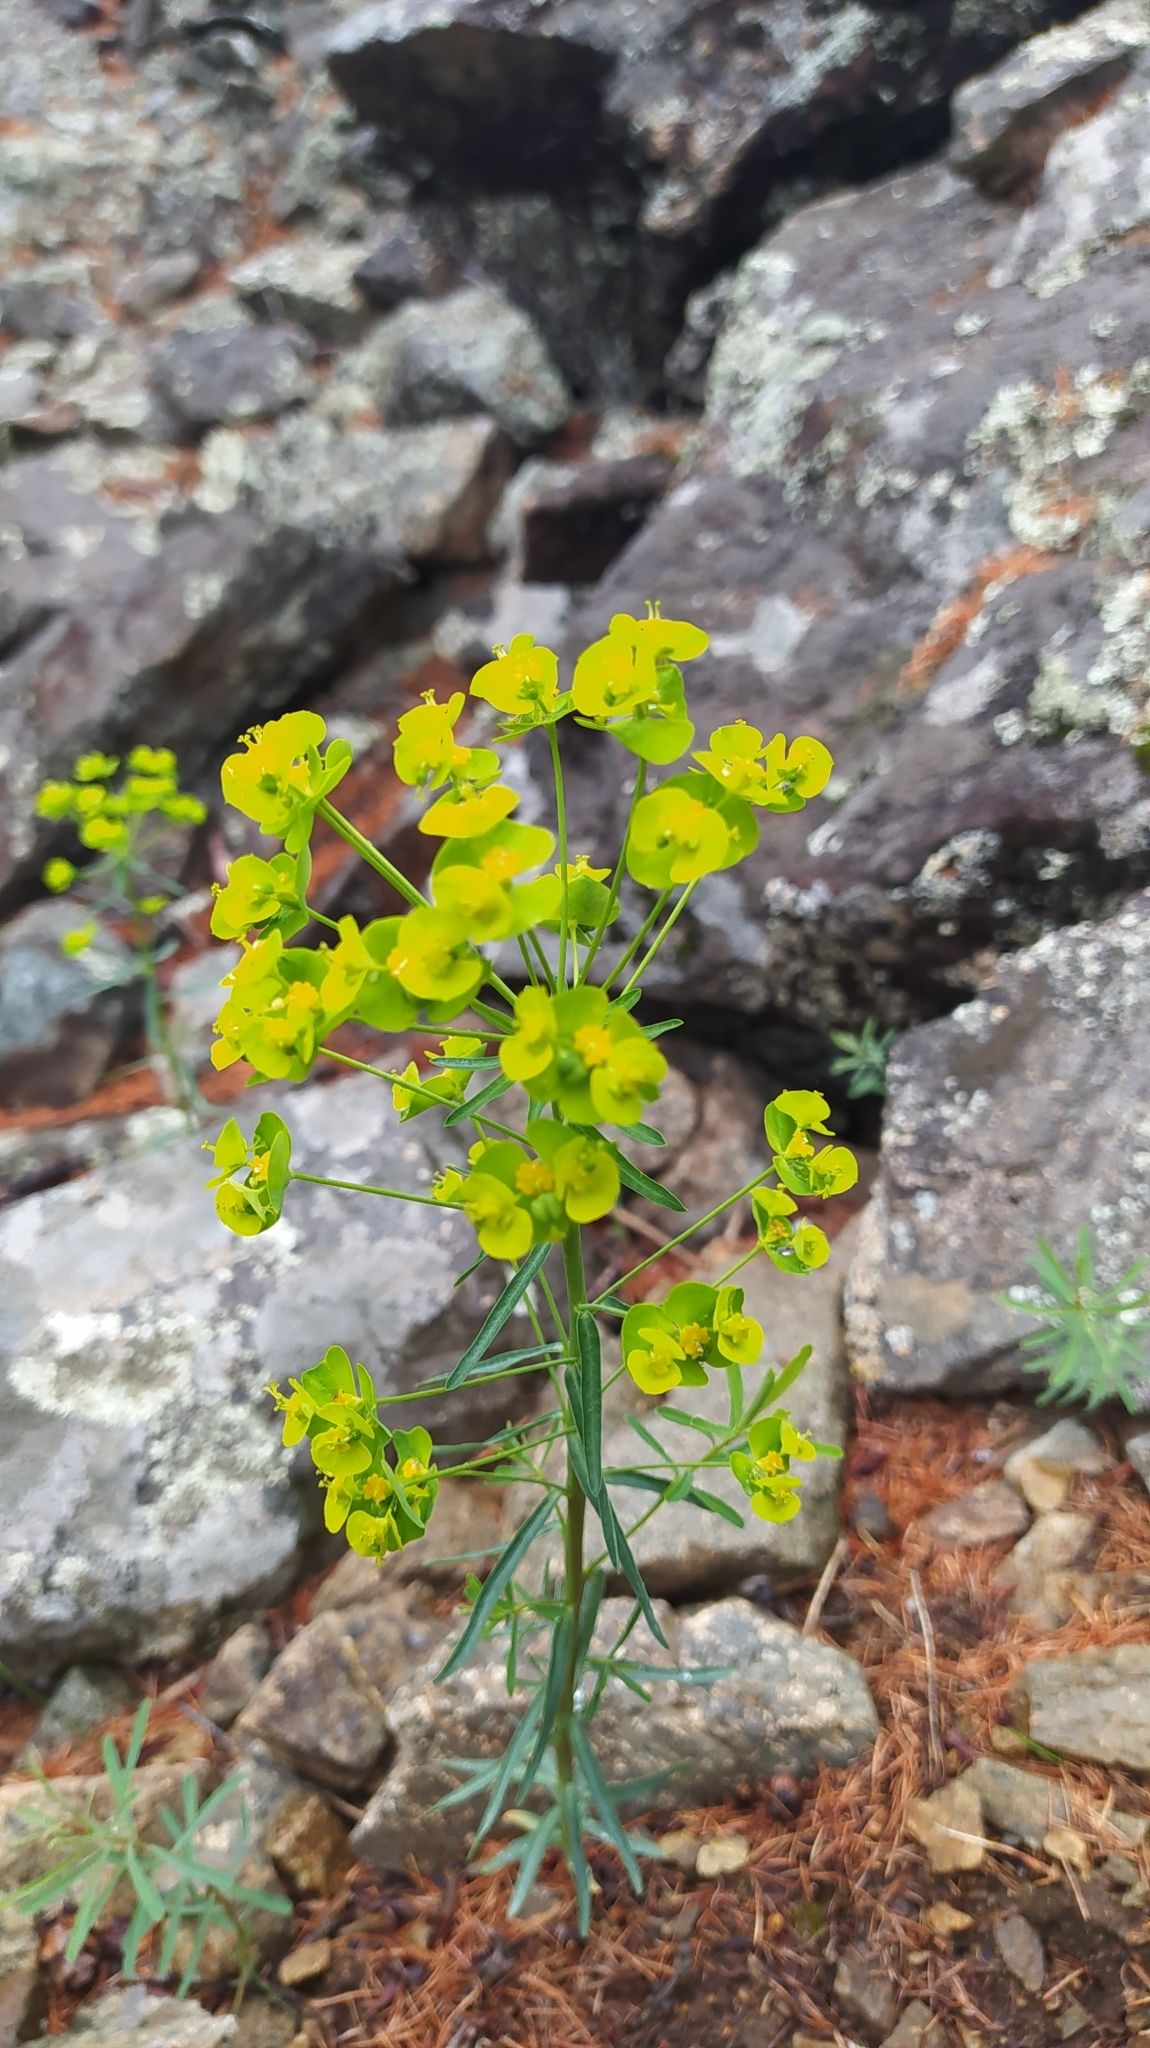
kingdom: Plantae
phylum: Tracheophyta
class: Magnoliopsida
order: Malpighiales
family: Euphorbiaceae
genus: Euphorbia
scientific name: Euphorbia virgata
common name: Leafy spurge
